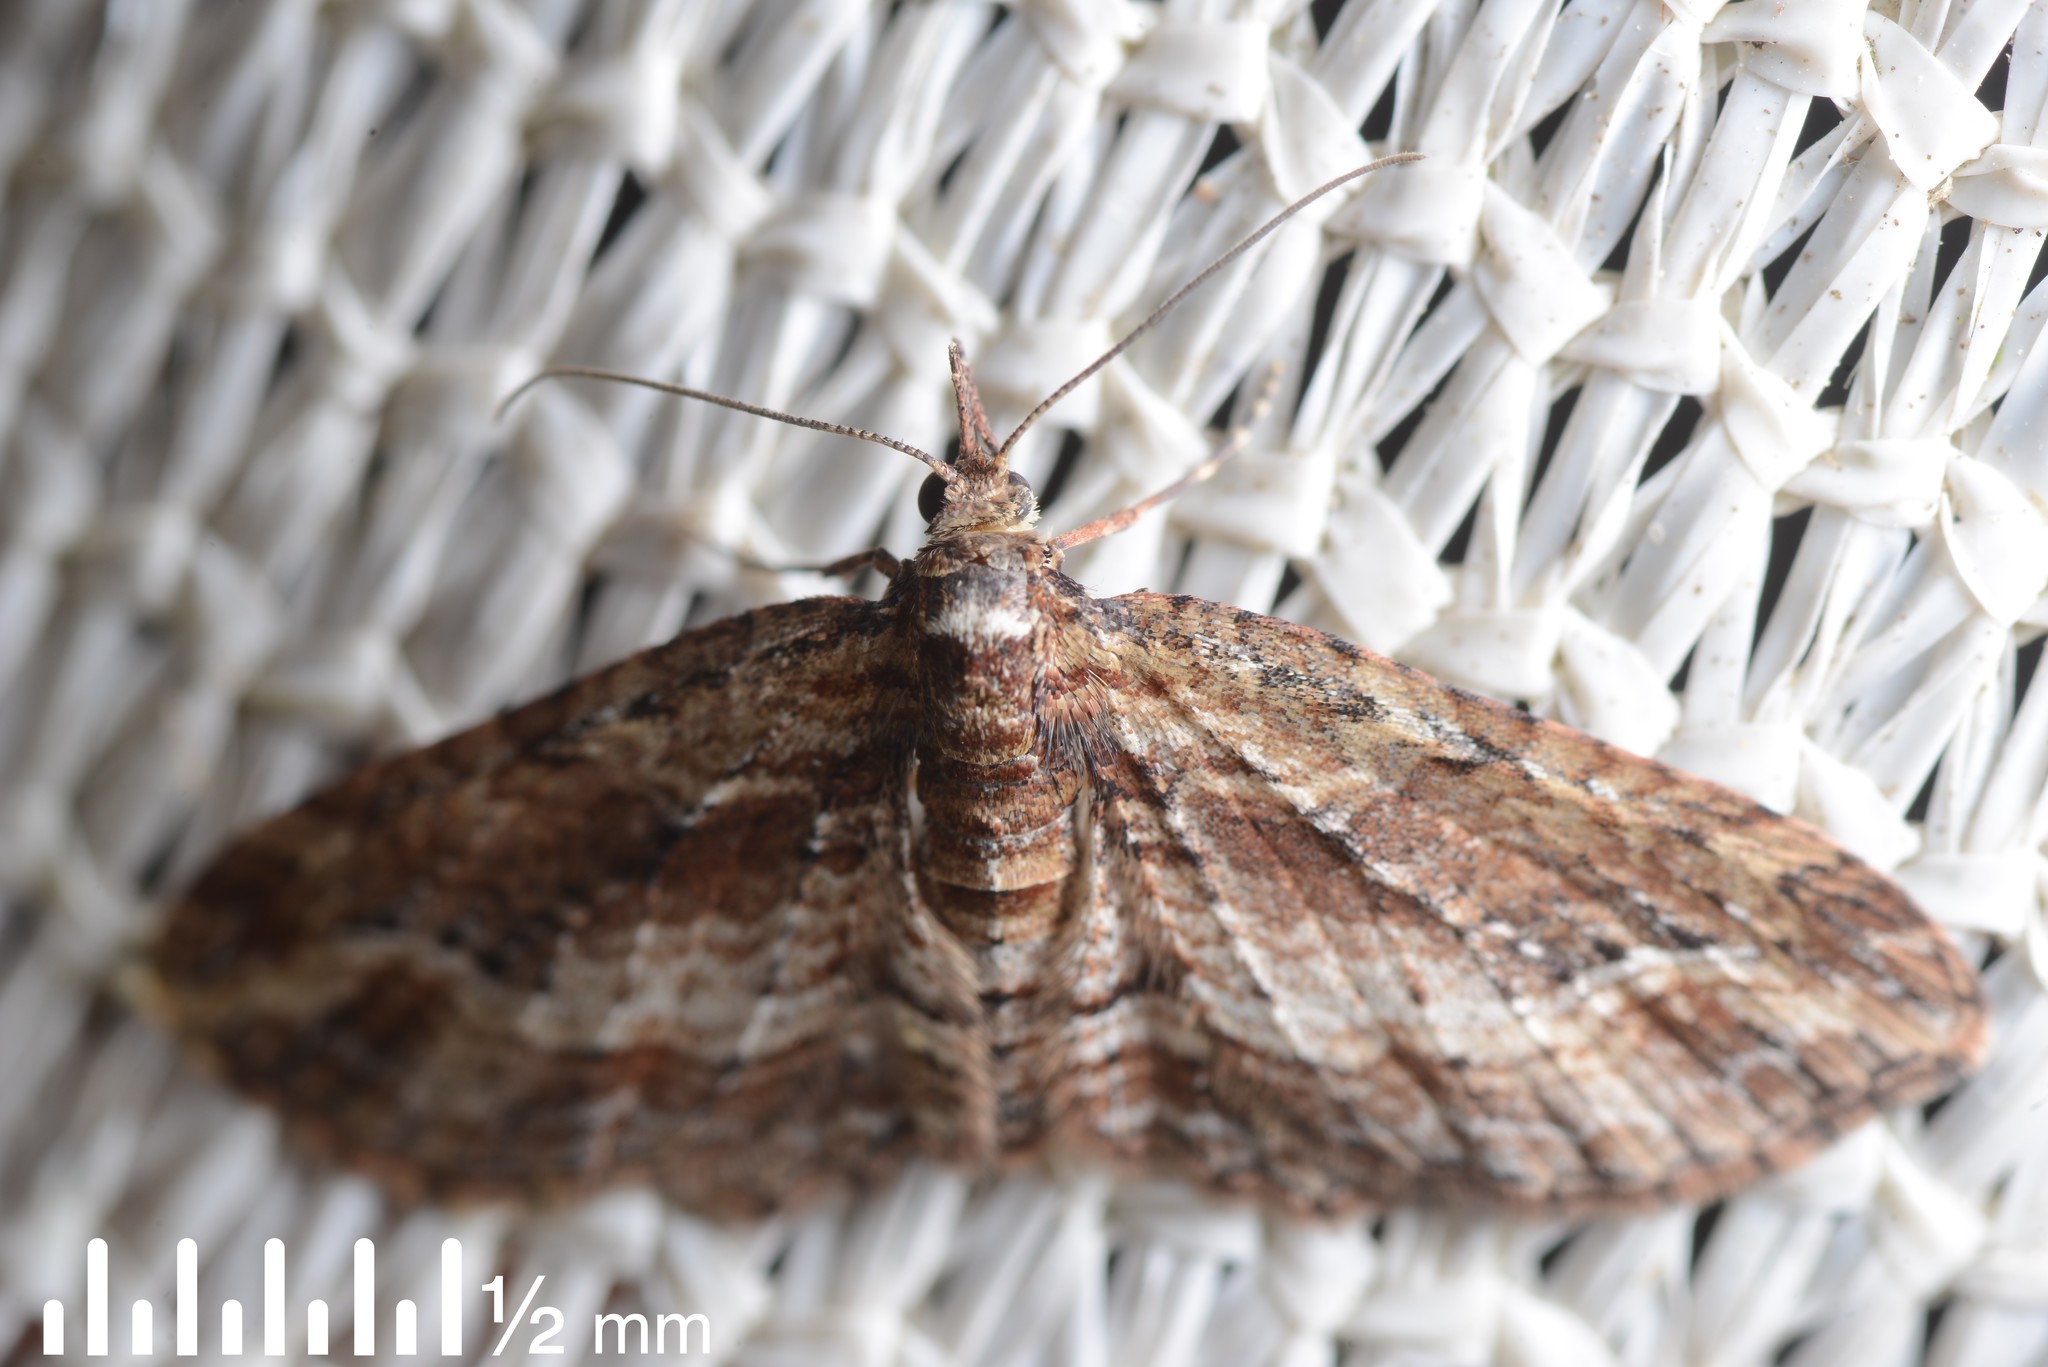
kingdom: Animalia
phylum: Arthropoda
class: Insecta
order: Lepidoptera
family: Geometridae
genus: Chloroclystis
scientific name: Chloroclystis filata
